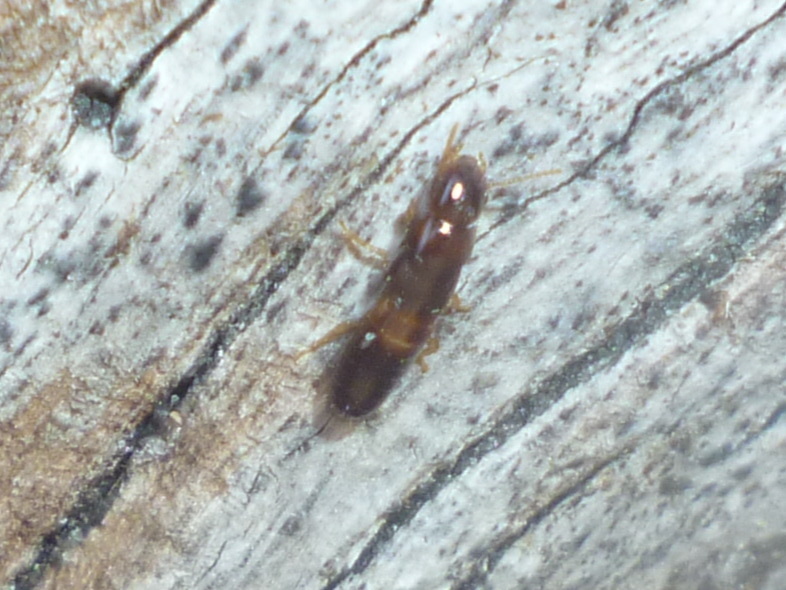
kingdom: Animalia
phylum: Arthropoda
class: Insecta
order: Blattodea
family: Kalotermitidae
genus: Kalotermes
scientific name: Kalotermes approximatus
